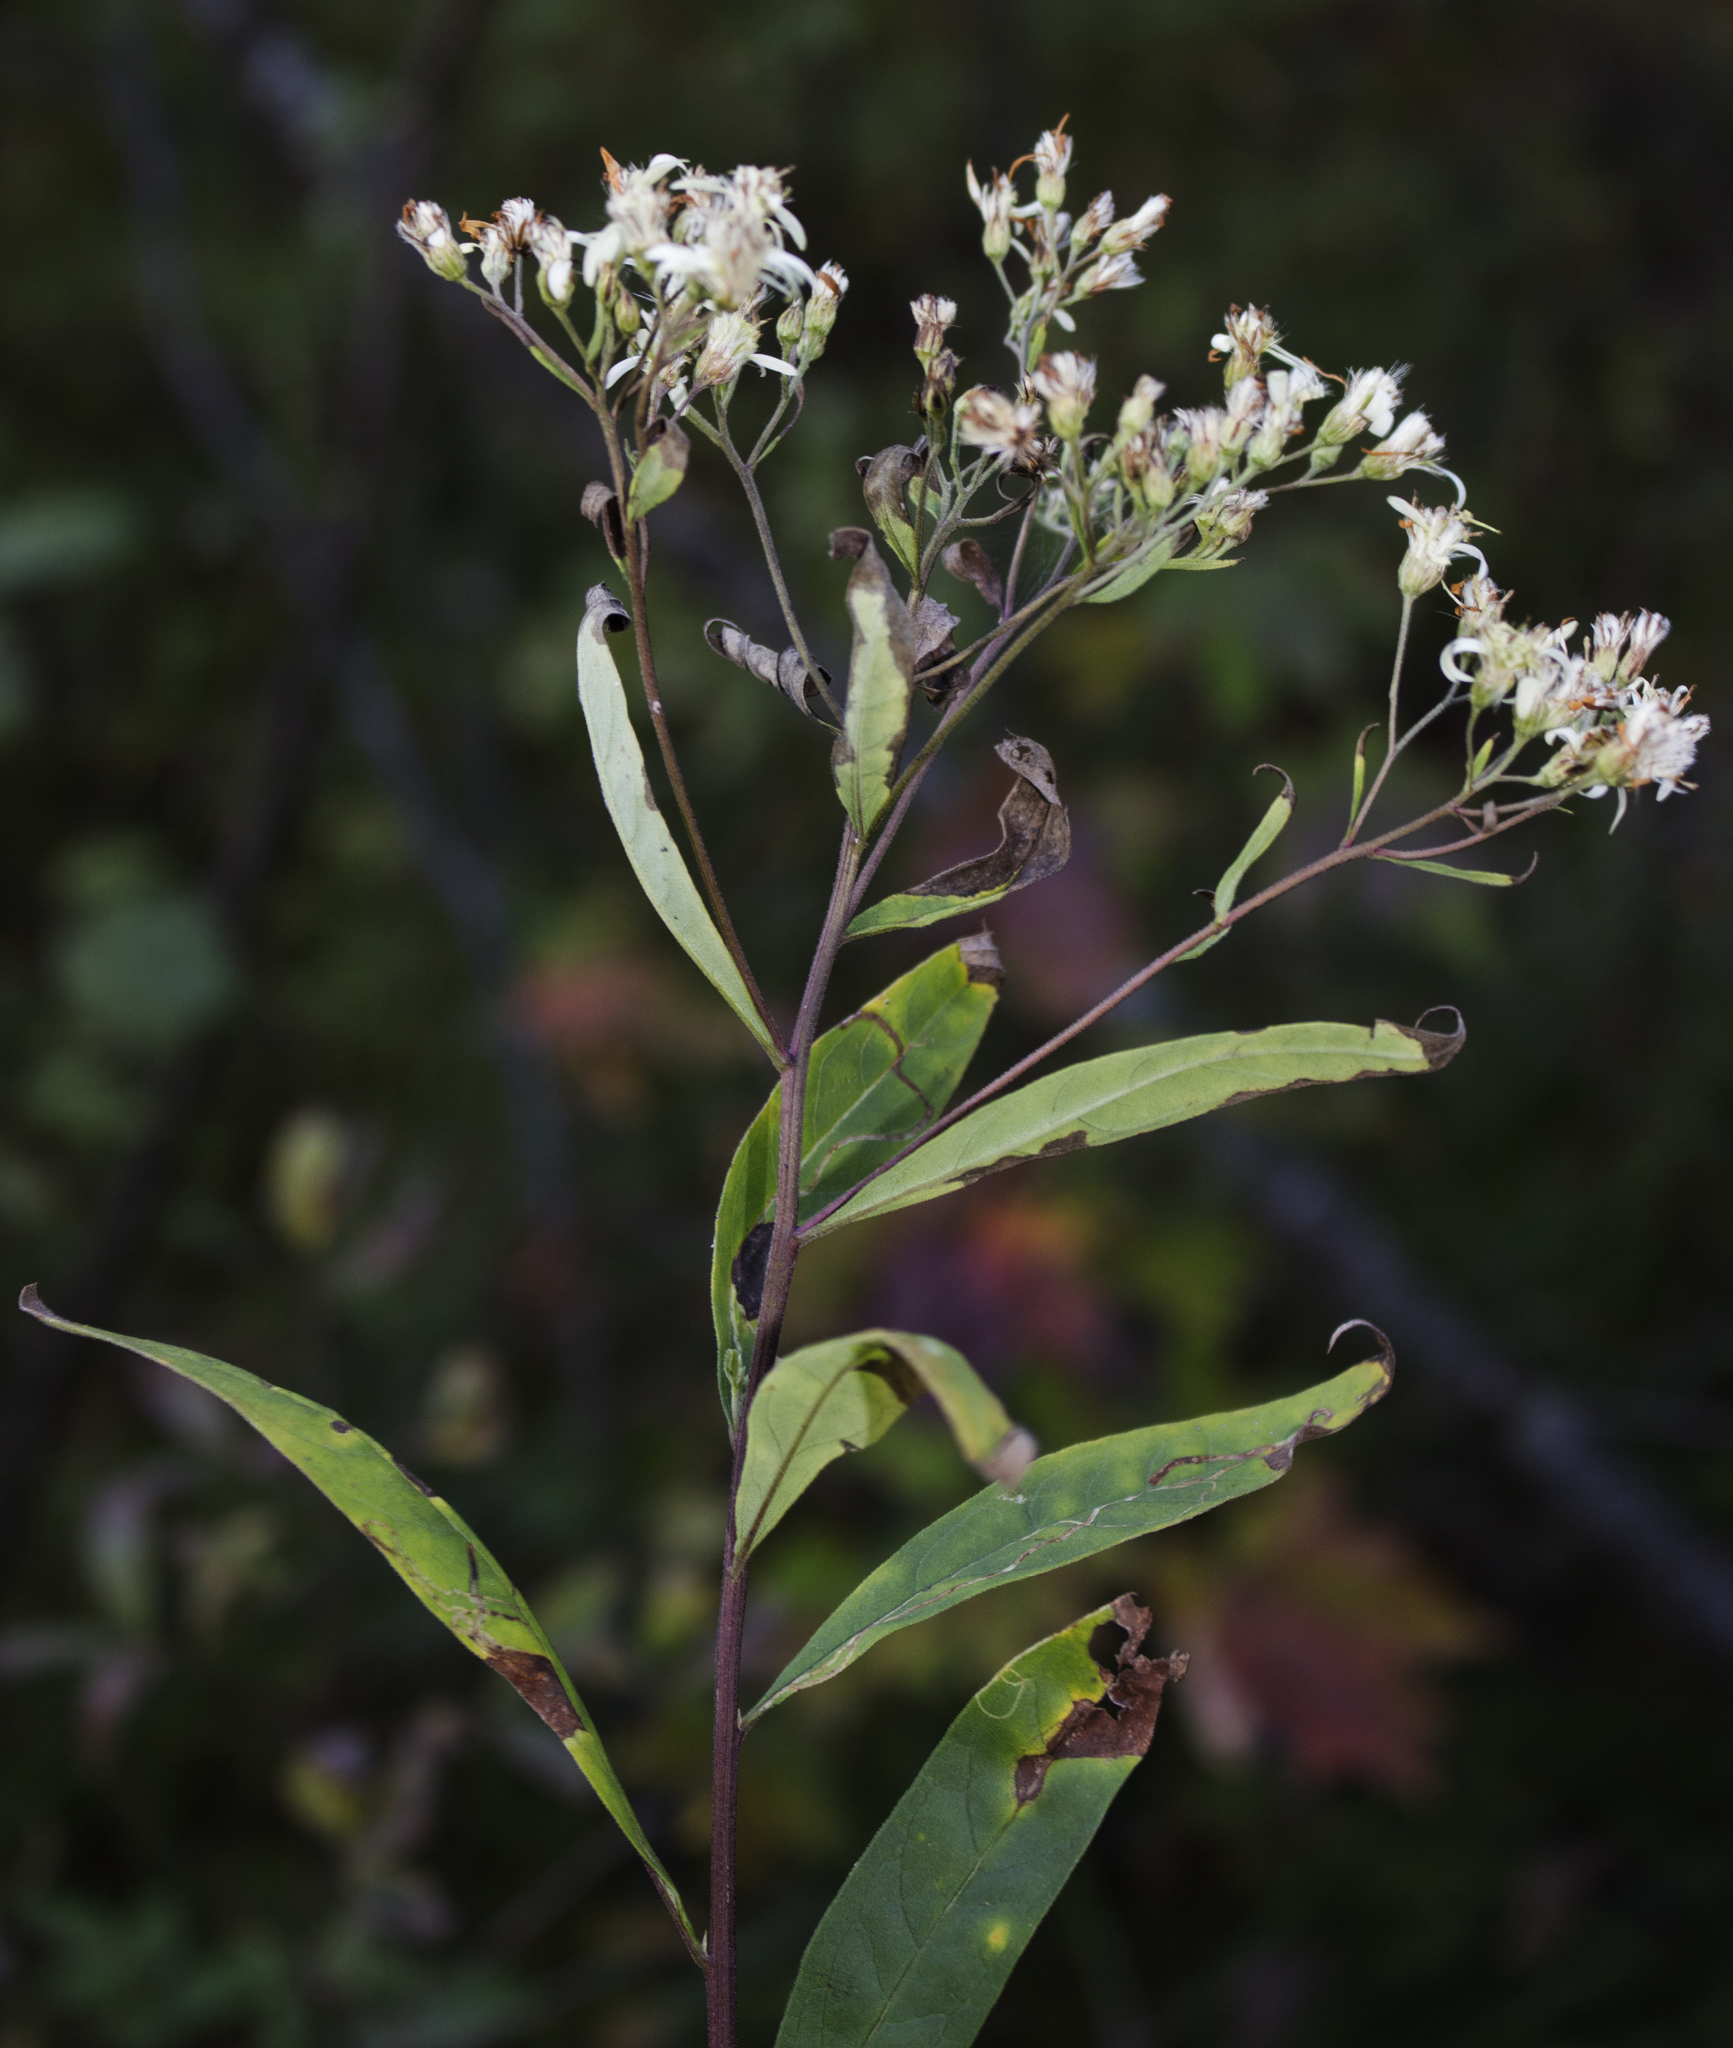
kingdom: Plantae
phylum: Tracheophyta
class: Magnoliopsida
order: Asterales
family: Asteraceae
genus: Doellingeria
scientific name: Doellingeria umbellata
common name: Flat-top white aster
